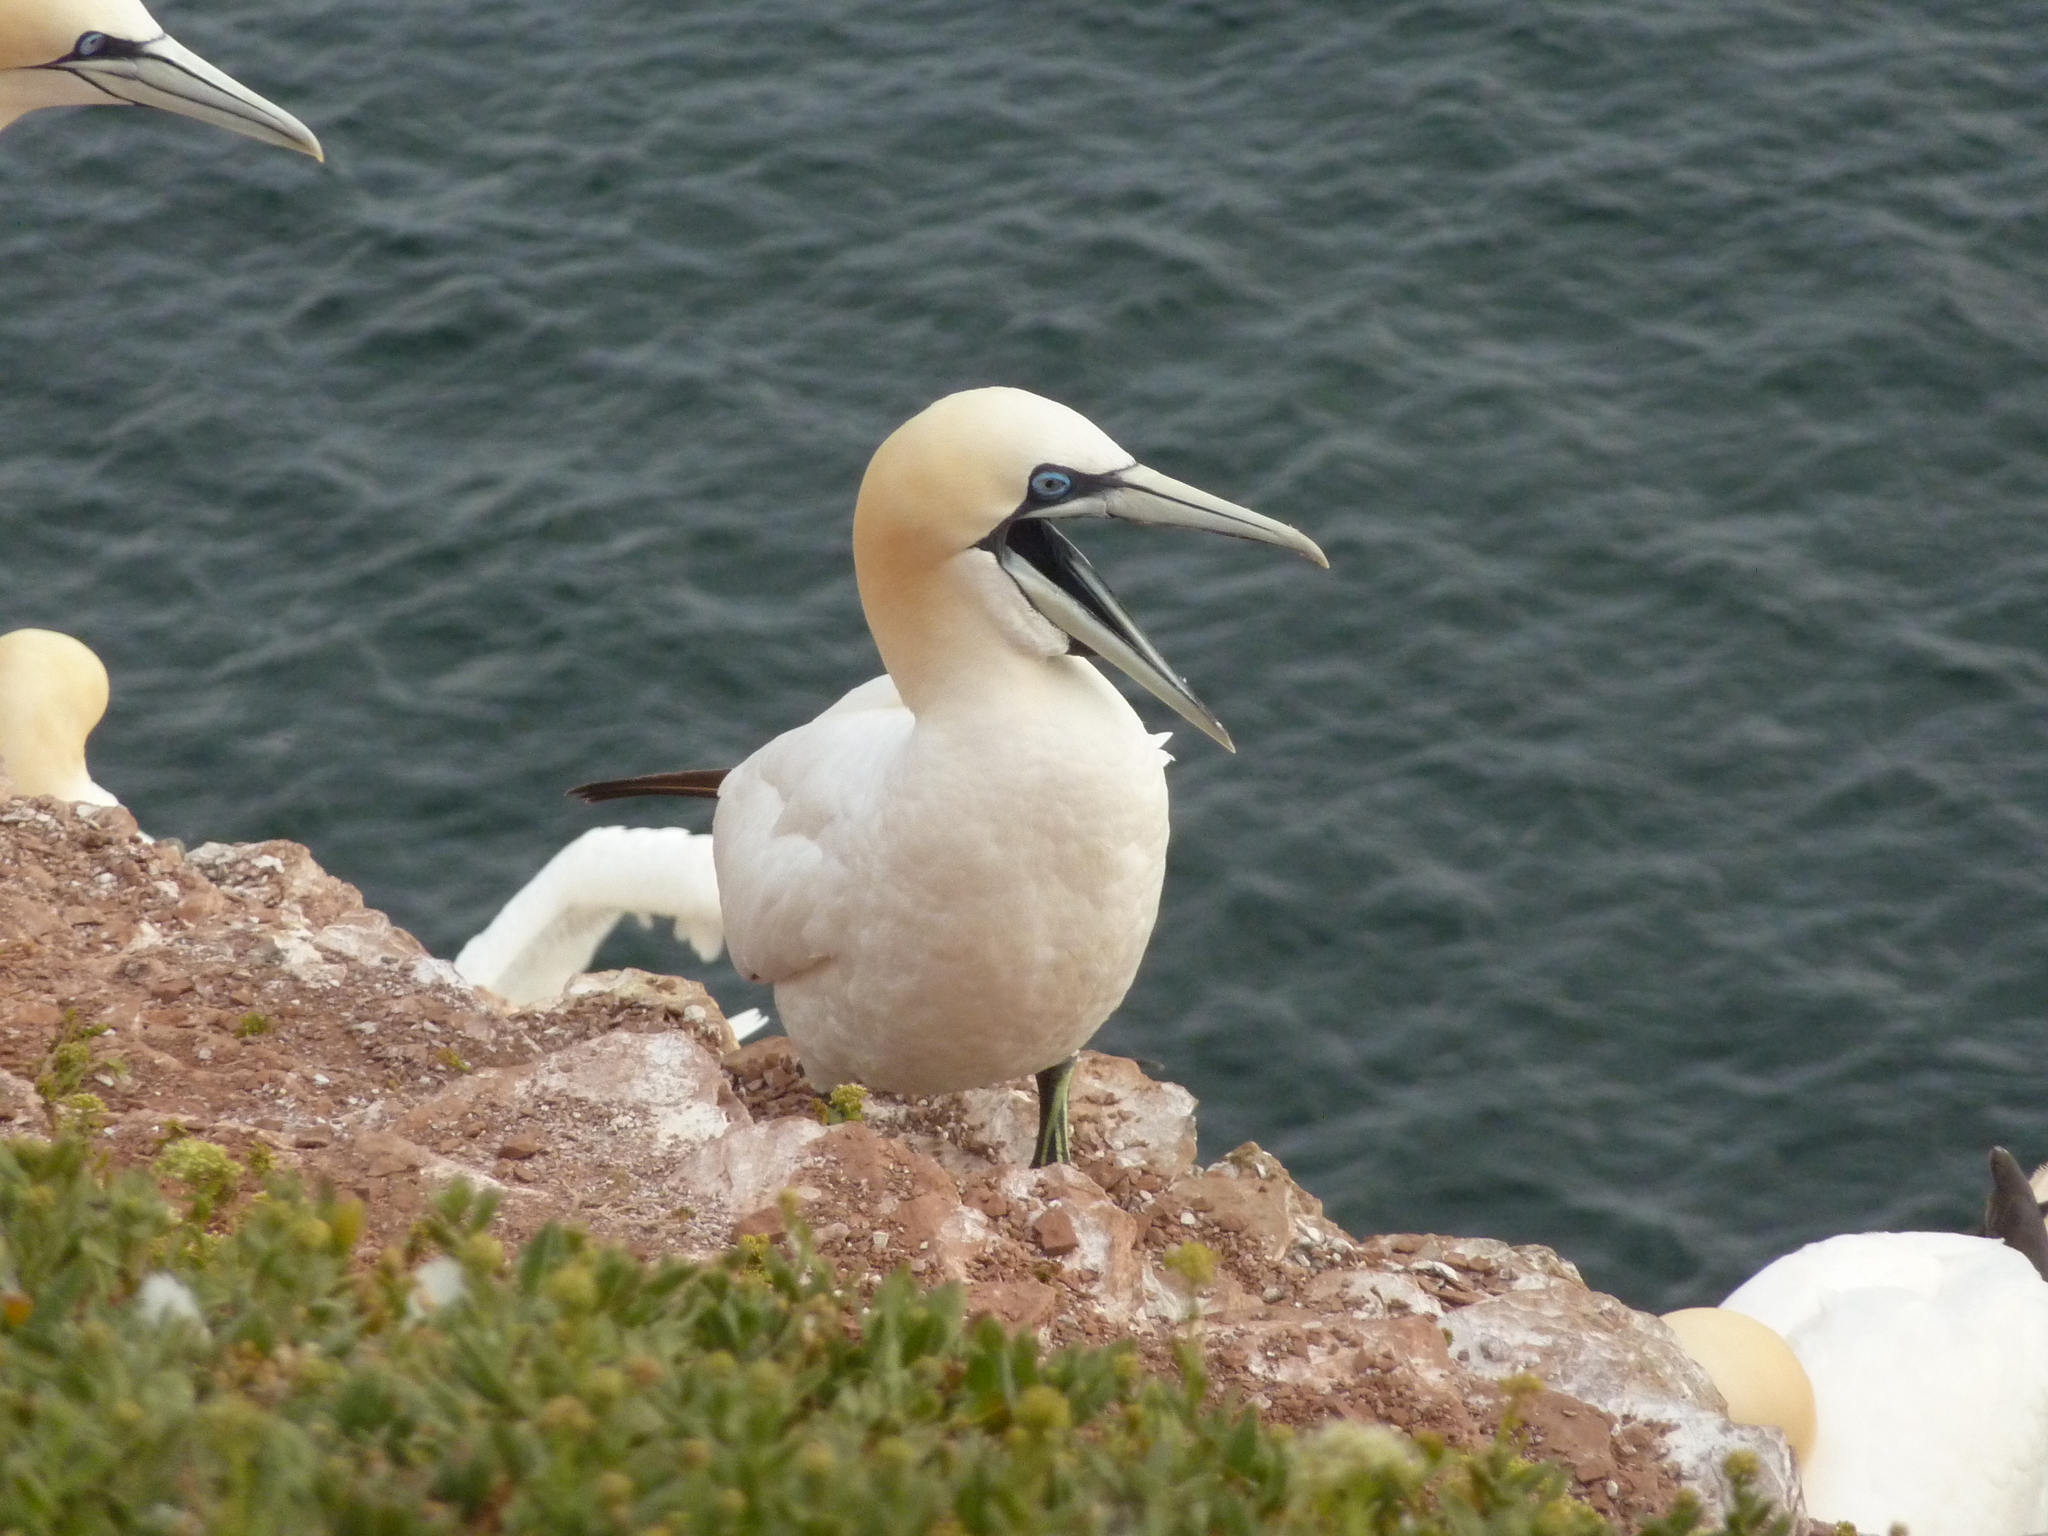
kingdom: Animalia
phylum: Chordata
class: Aves
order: Suliformes
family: Sulidae
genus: Morus
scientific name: Morus bassanus
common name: Northern gannet
